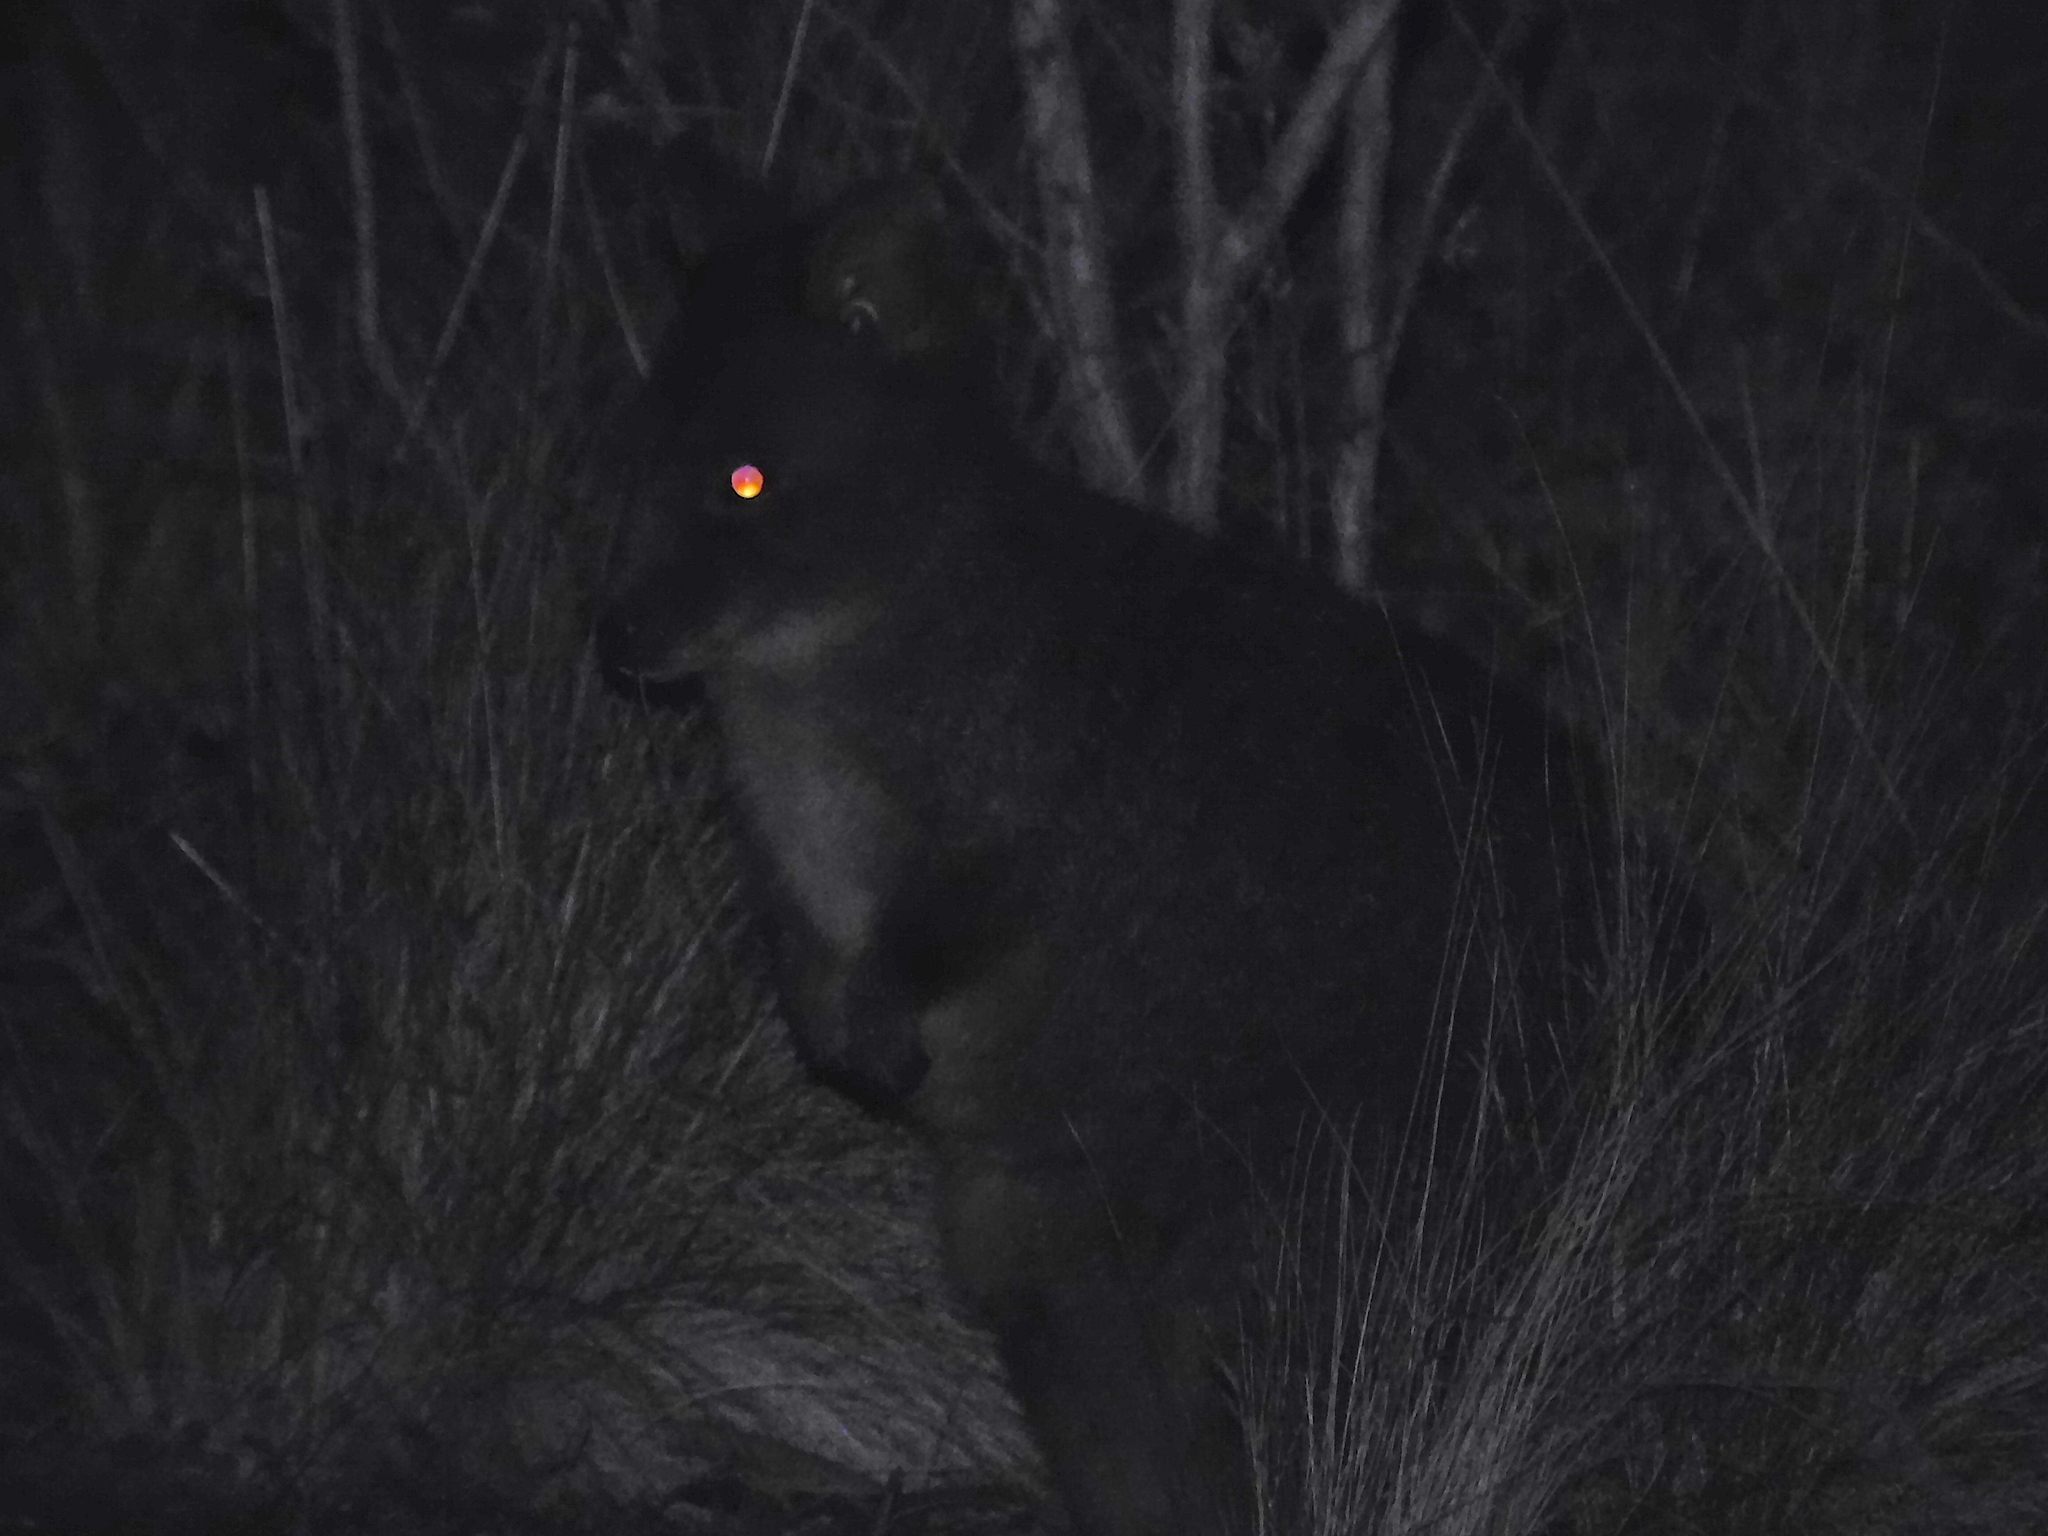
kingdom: Animalia
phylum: Chordata
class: Mammalia
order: Diprotodontia
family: Macropodidae
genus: Thylogale
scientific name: Thylogale billardierii
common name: Tasmanian pademelon
